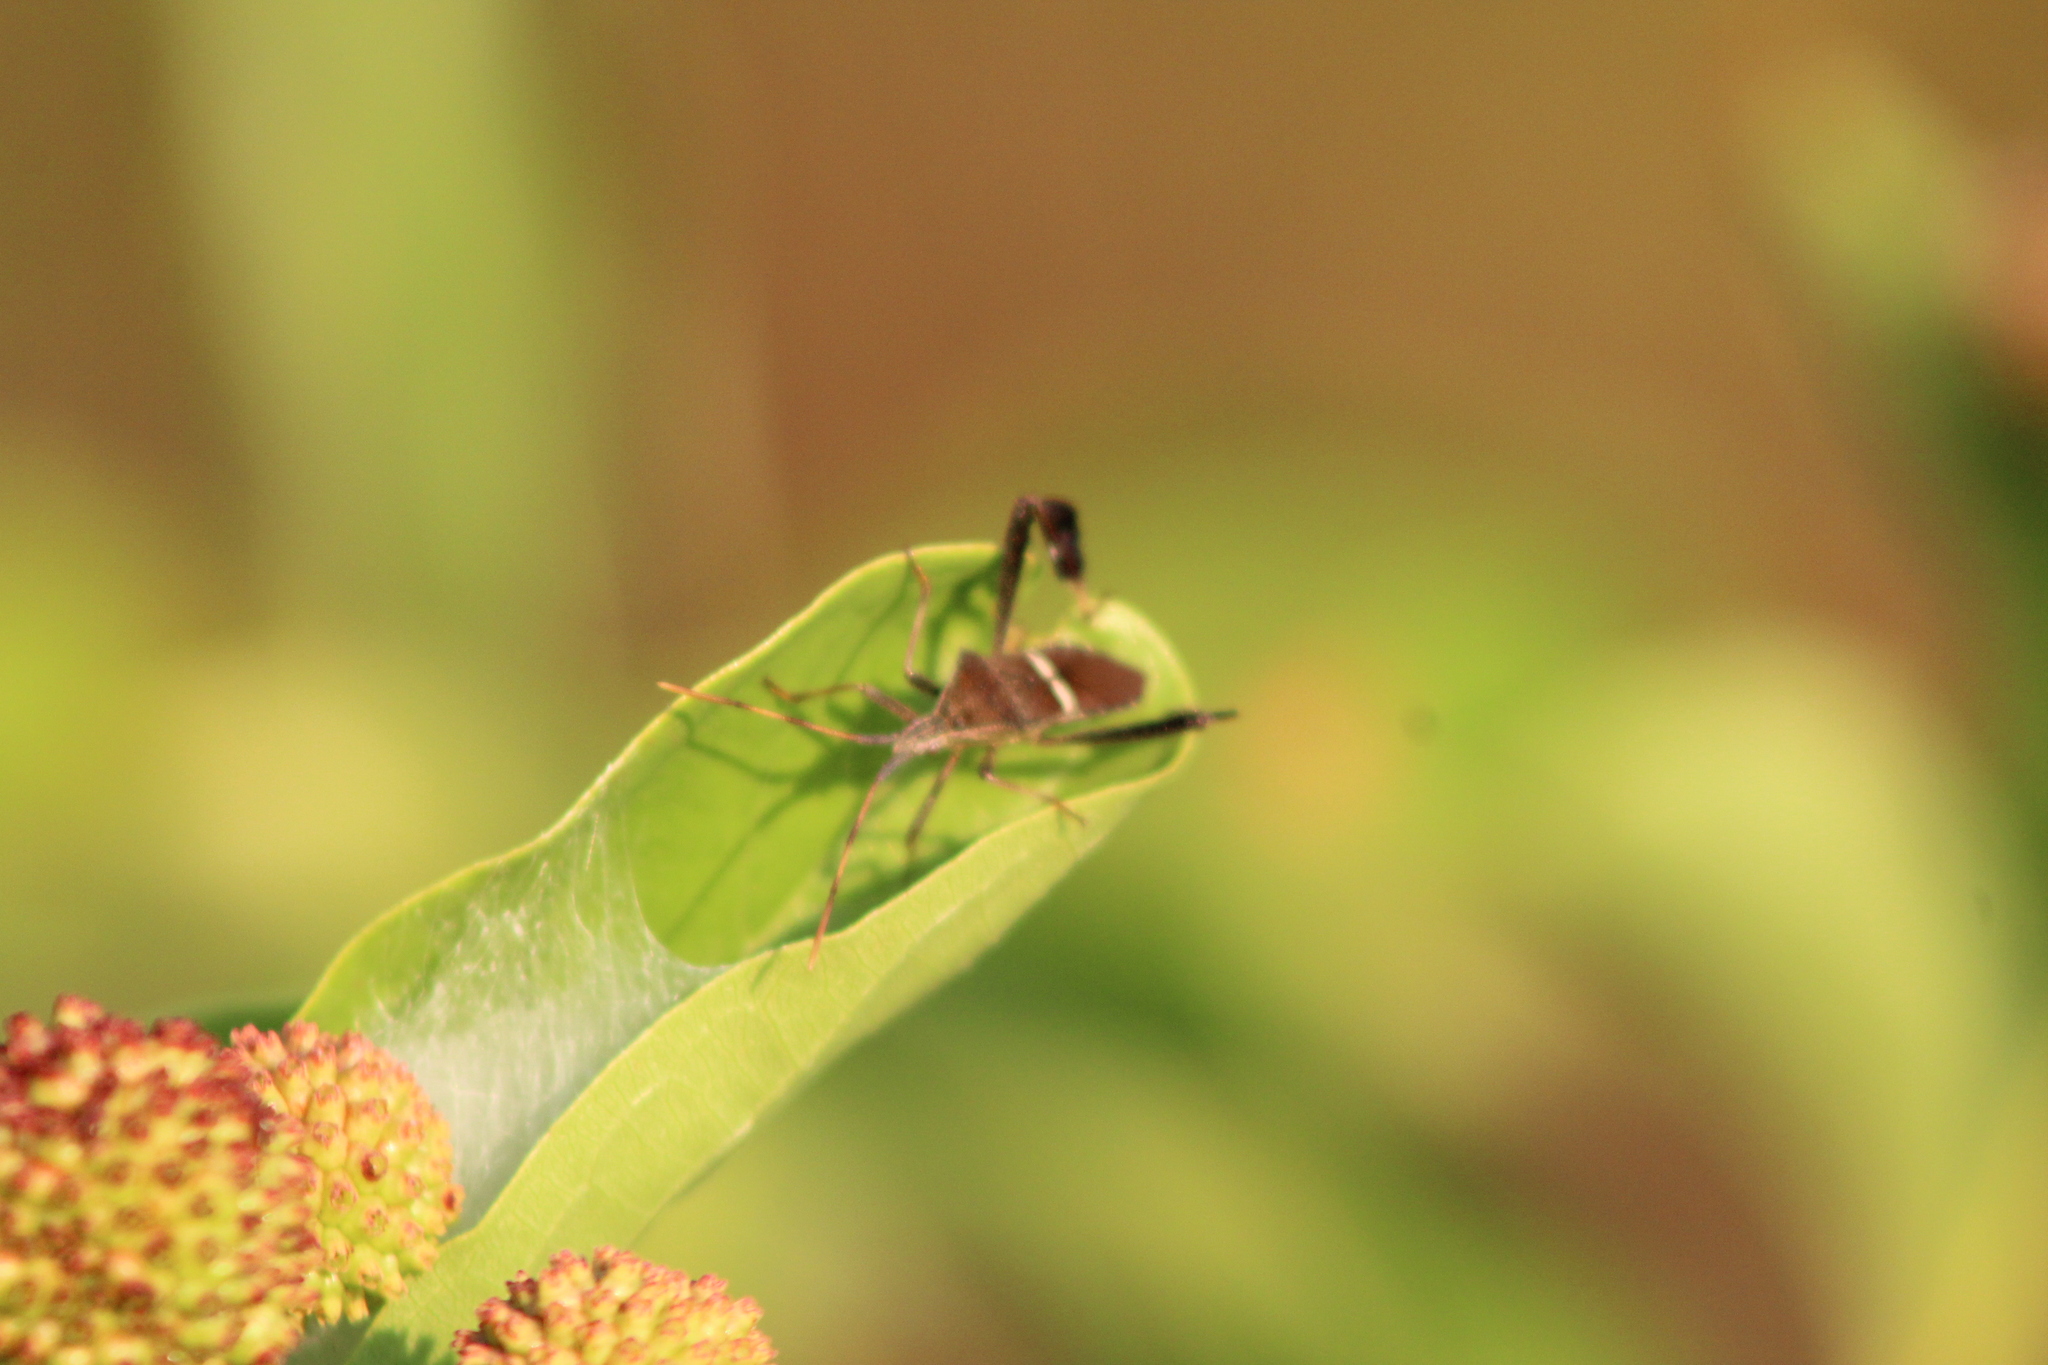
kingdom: Animalia
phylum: Arthropoda
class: Insecta
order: Hemiptera
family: Coreidae
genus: Leptoglossus
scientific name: Leptoglossus phyllopus
